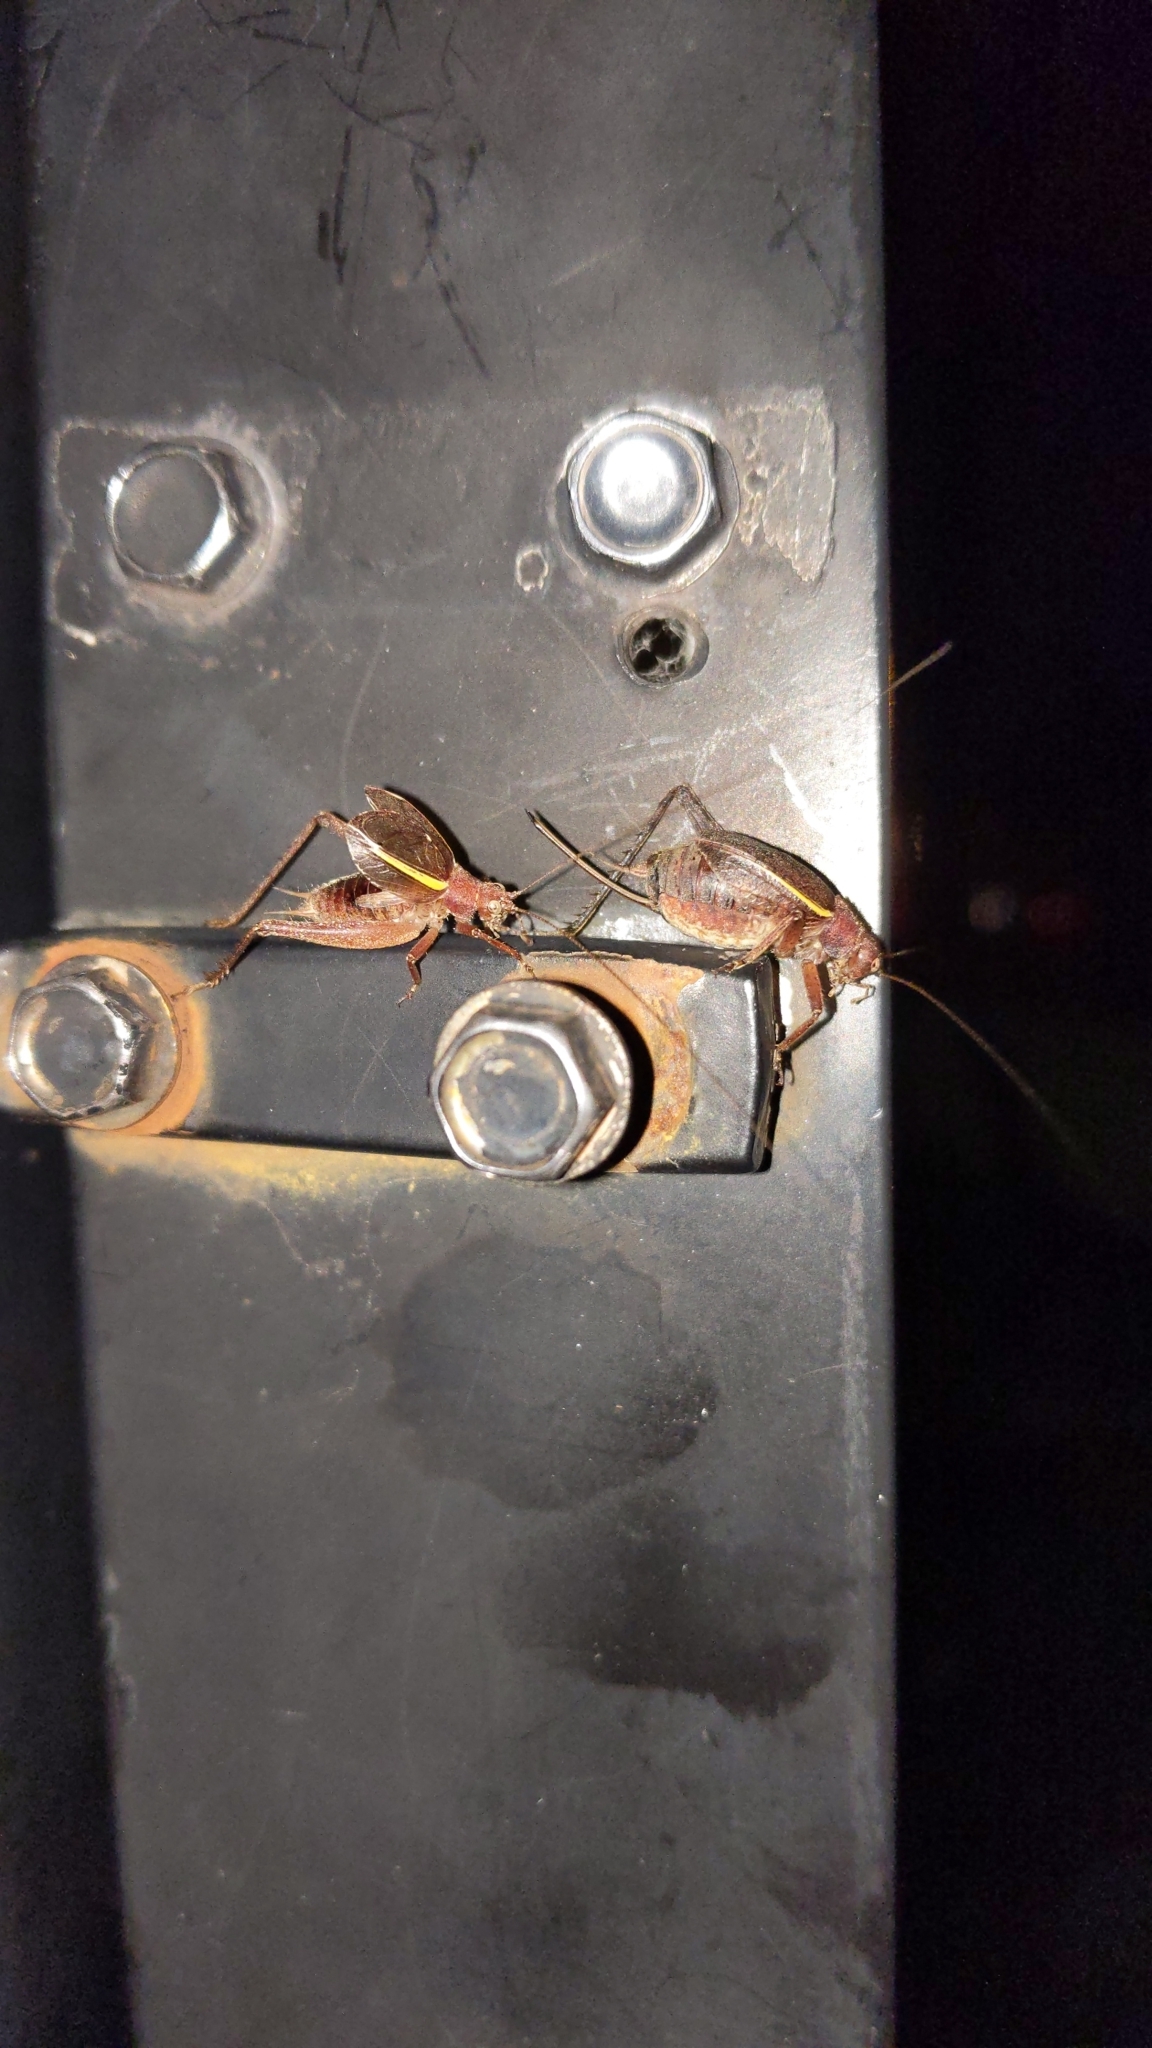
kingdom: Animalia
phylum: Arthropoda
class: Insecta
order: Orthoptera
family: Gryllidae
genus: Hapithus
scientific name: Hapithus agitator
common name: Restless bush cricket
